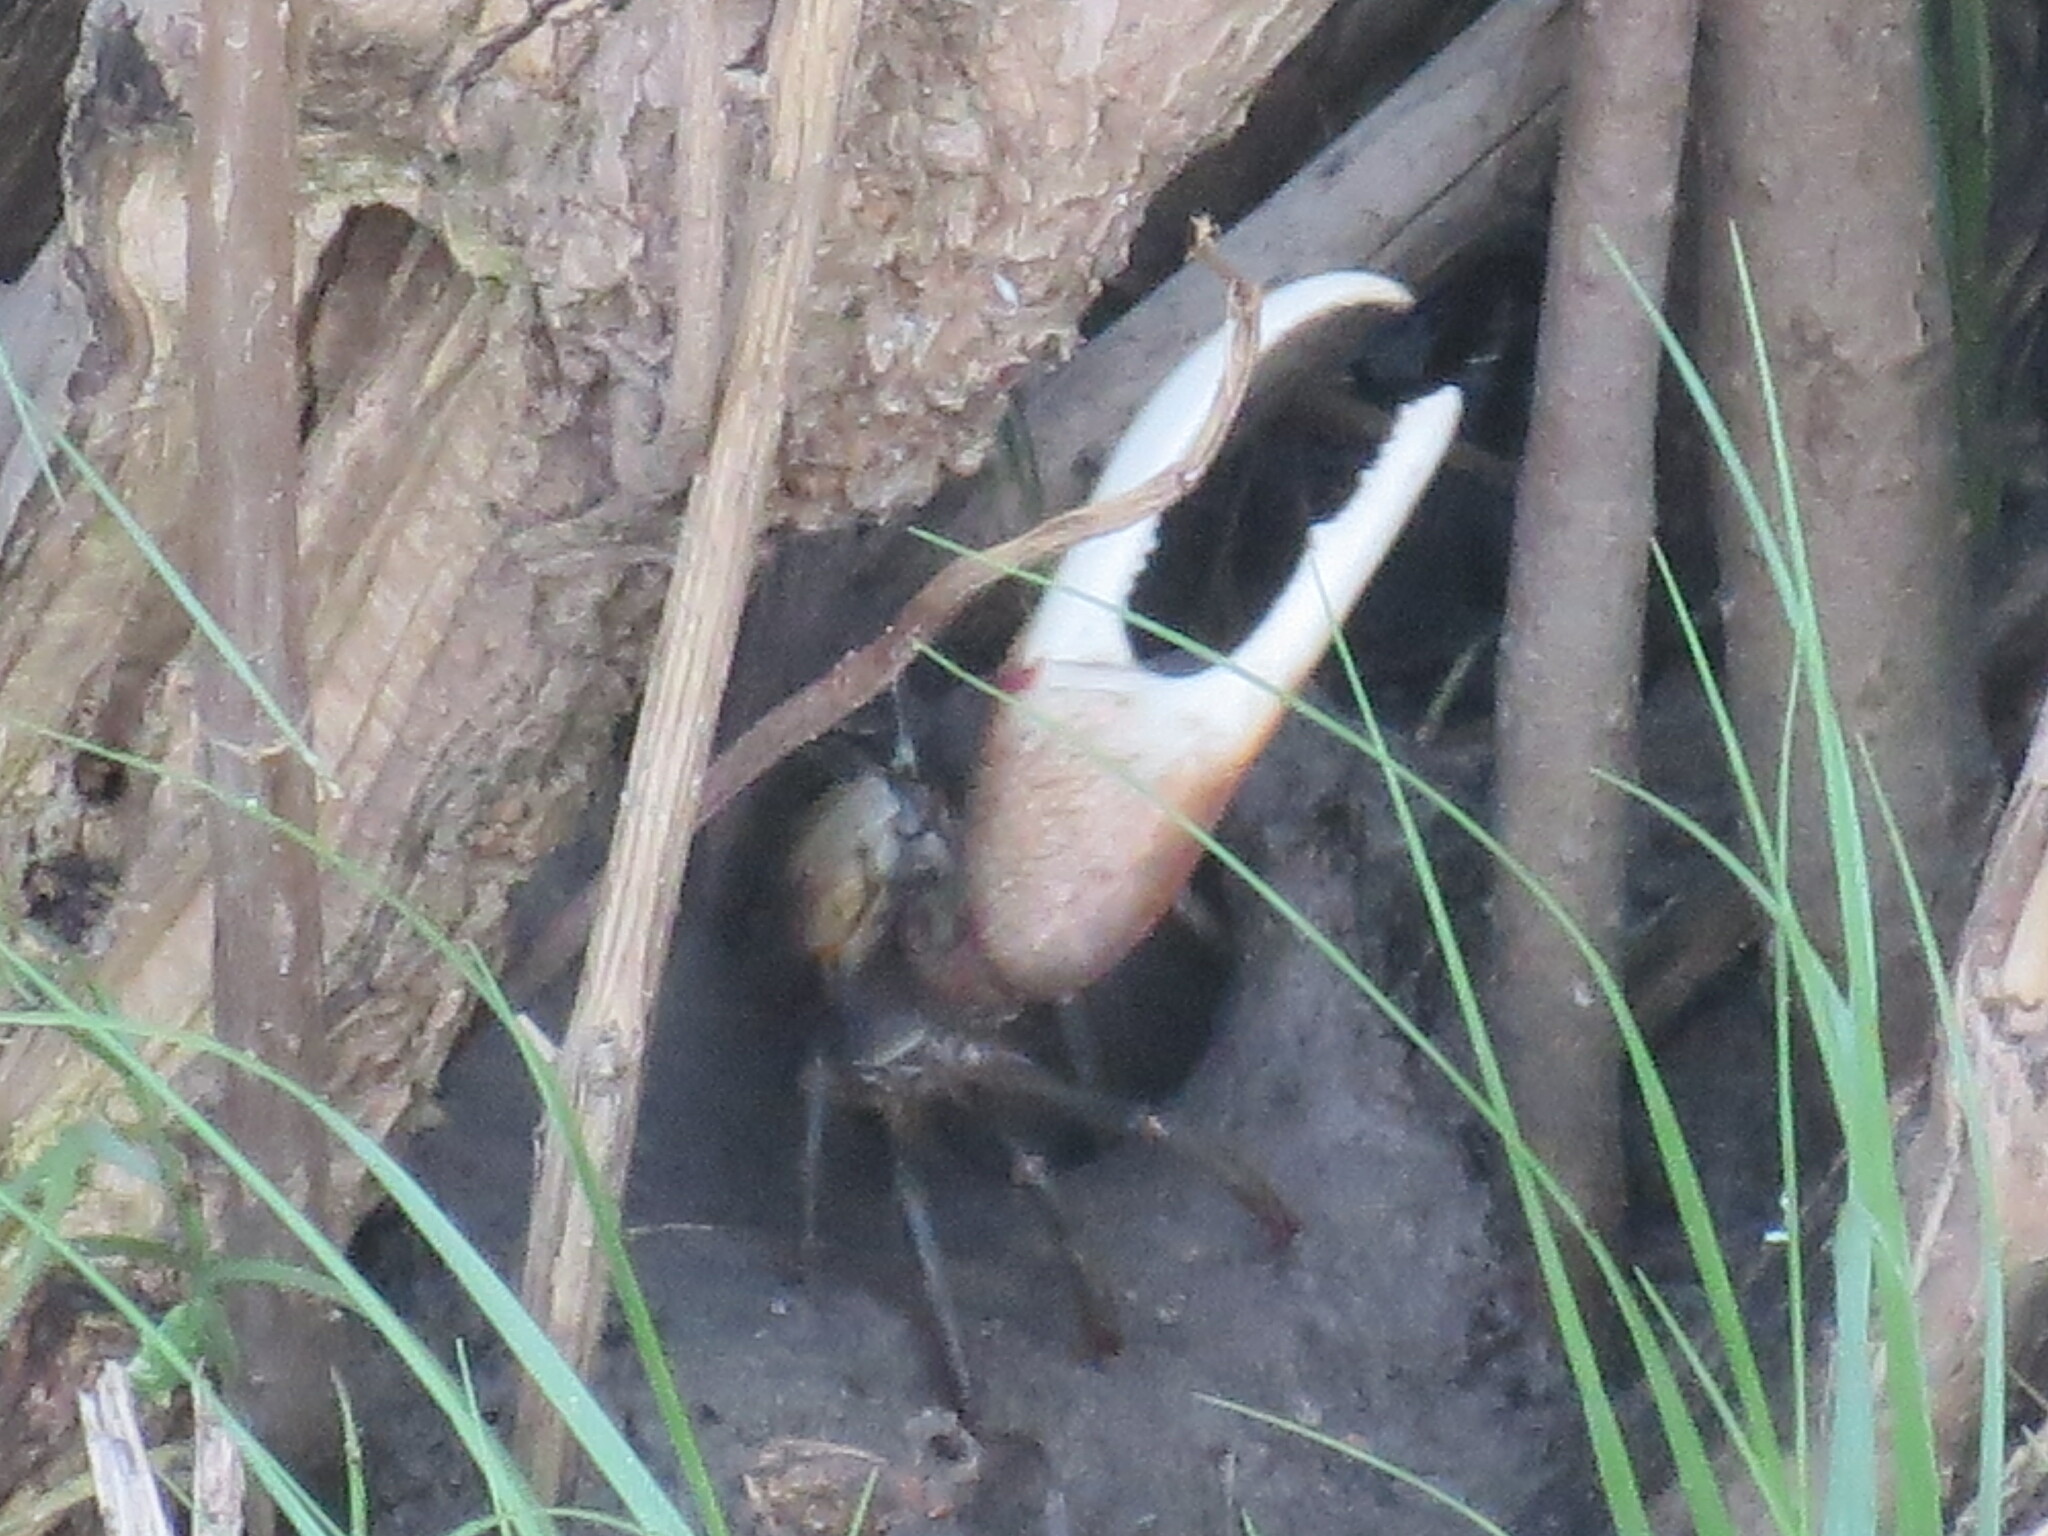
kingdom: Animalia
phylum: Arthropoda
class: Malacostraca
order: Decapoda
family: Ocypodidae
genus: Minuca
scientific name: Minuca minax
